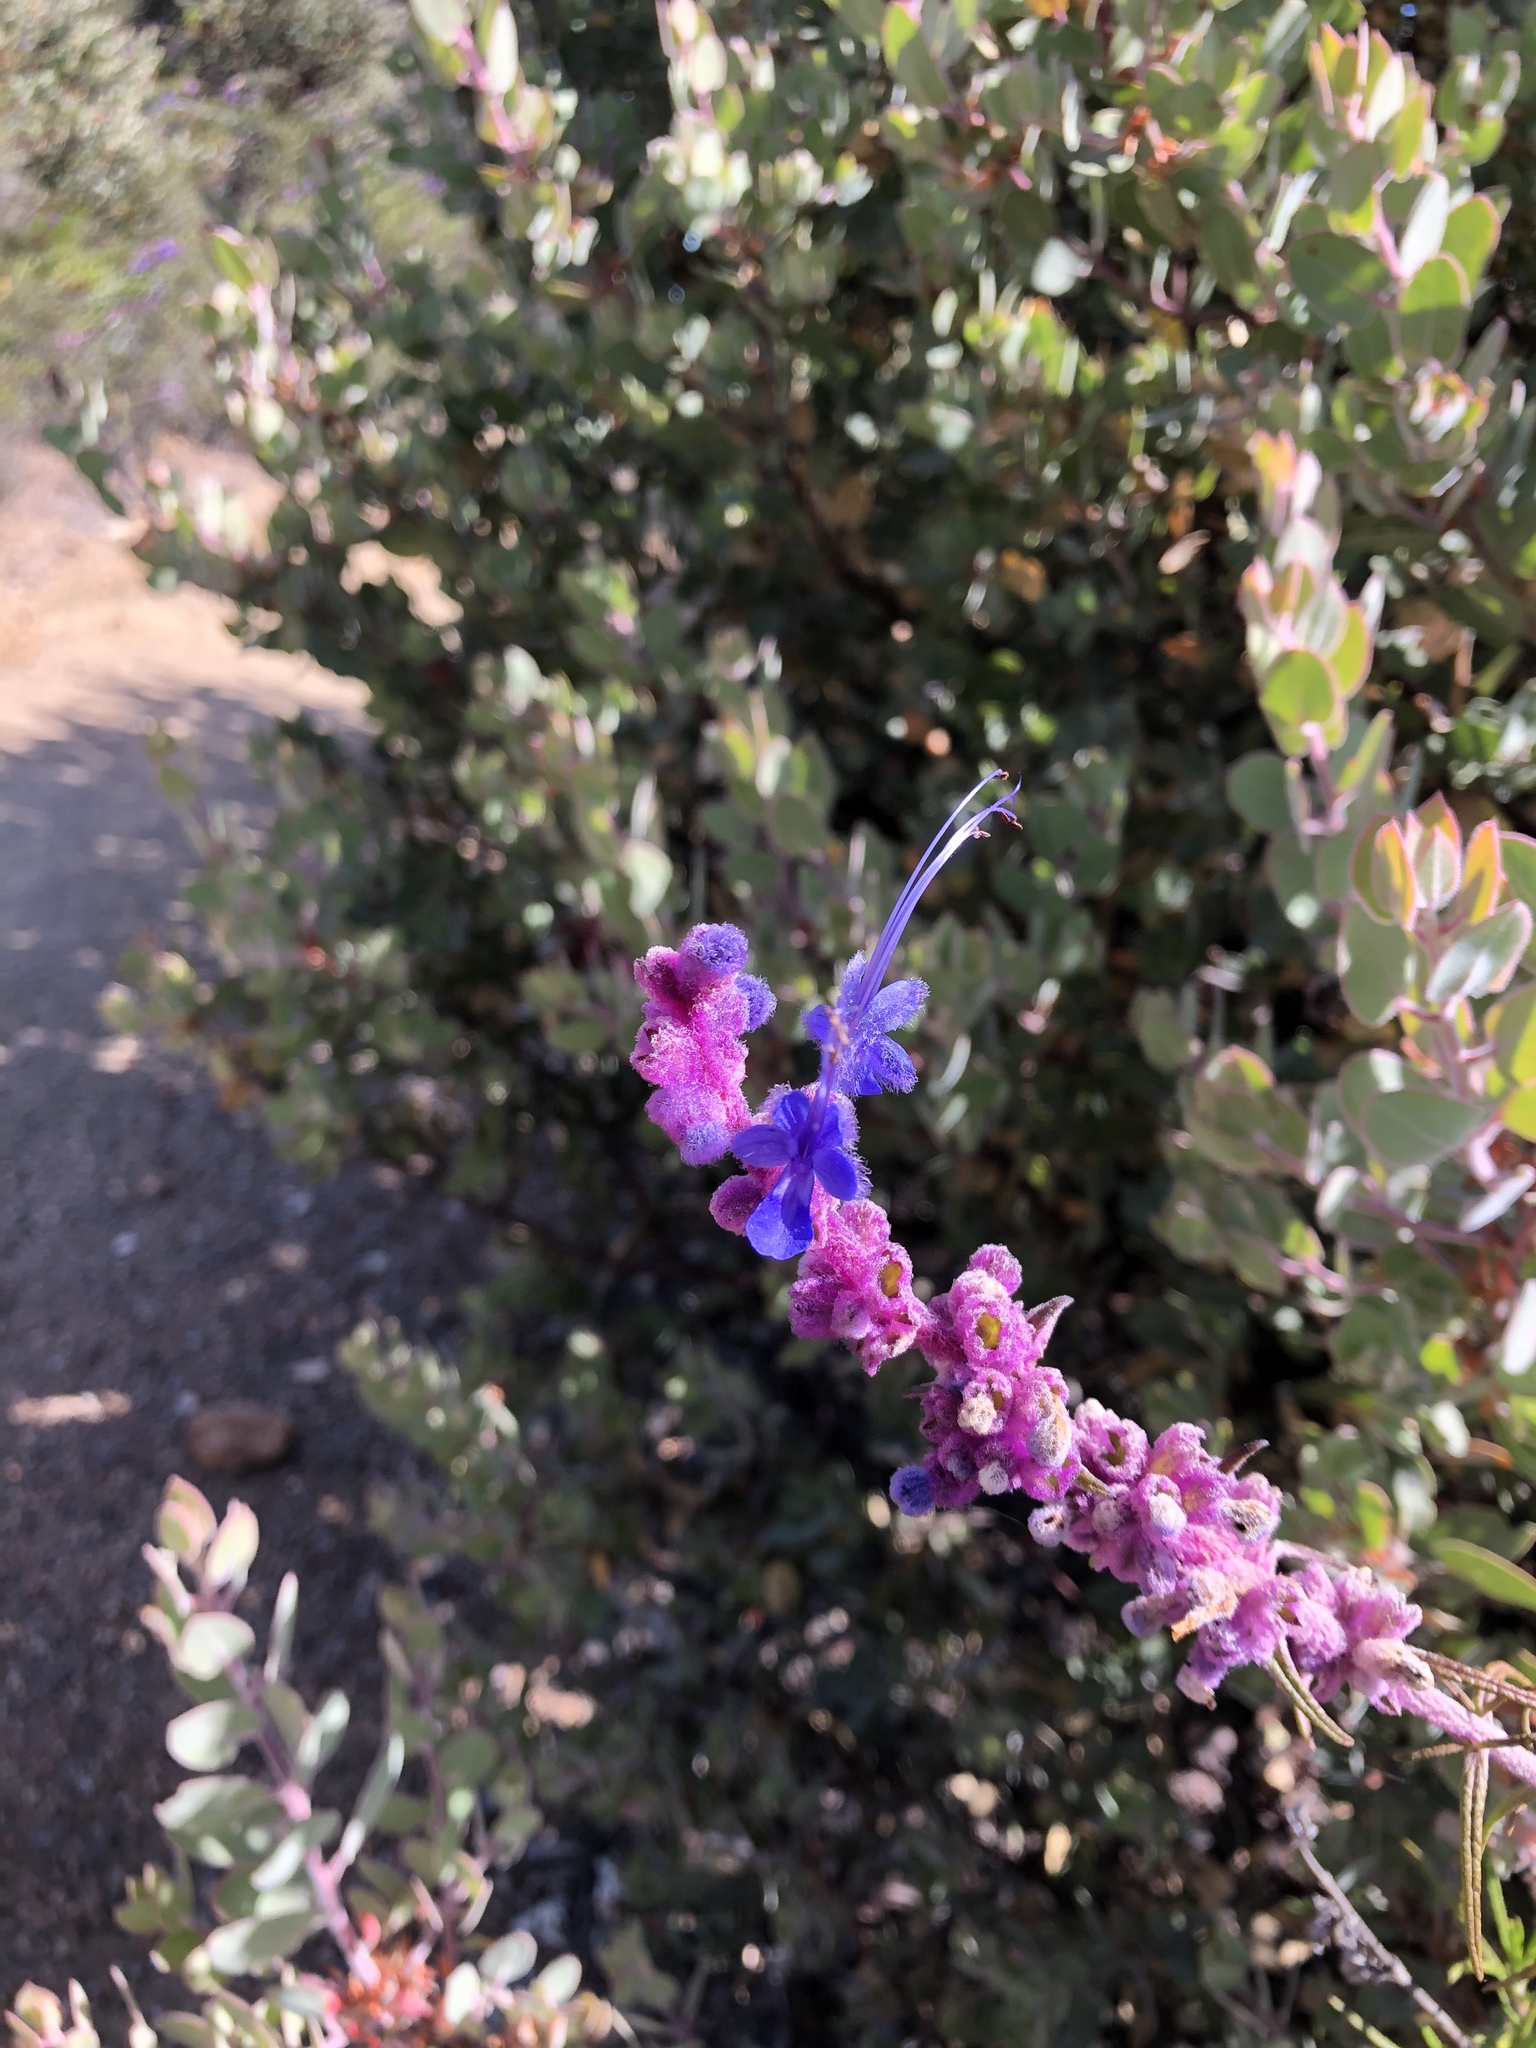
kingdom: Plantae
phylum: Tracheophyta
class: Magnoliopsida
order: Lamiales
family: Lamiaceae
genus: Trichostema
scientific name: Trichostema lanatum
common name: Woolly bluecurls
